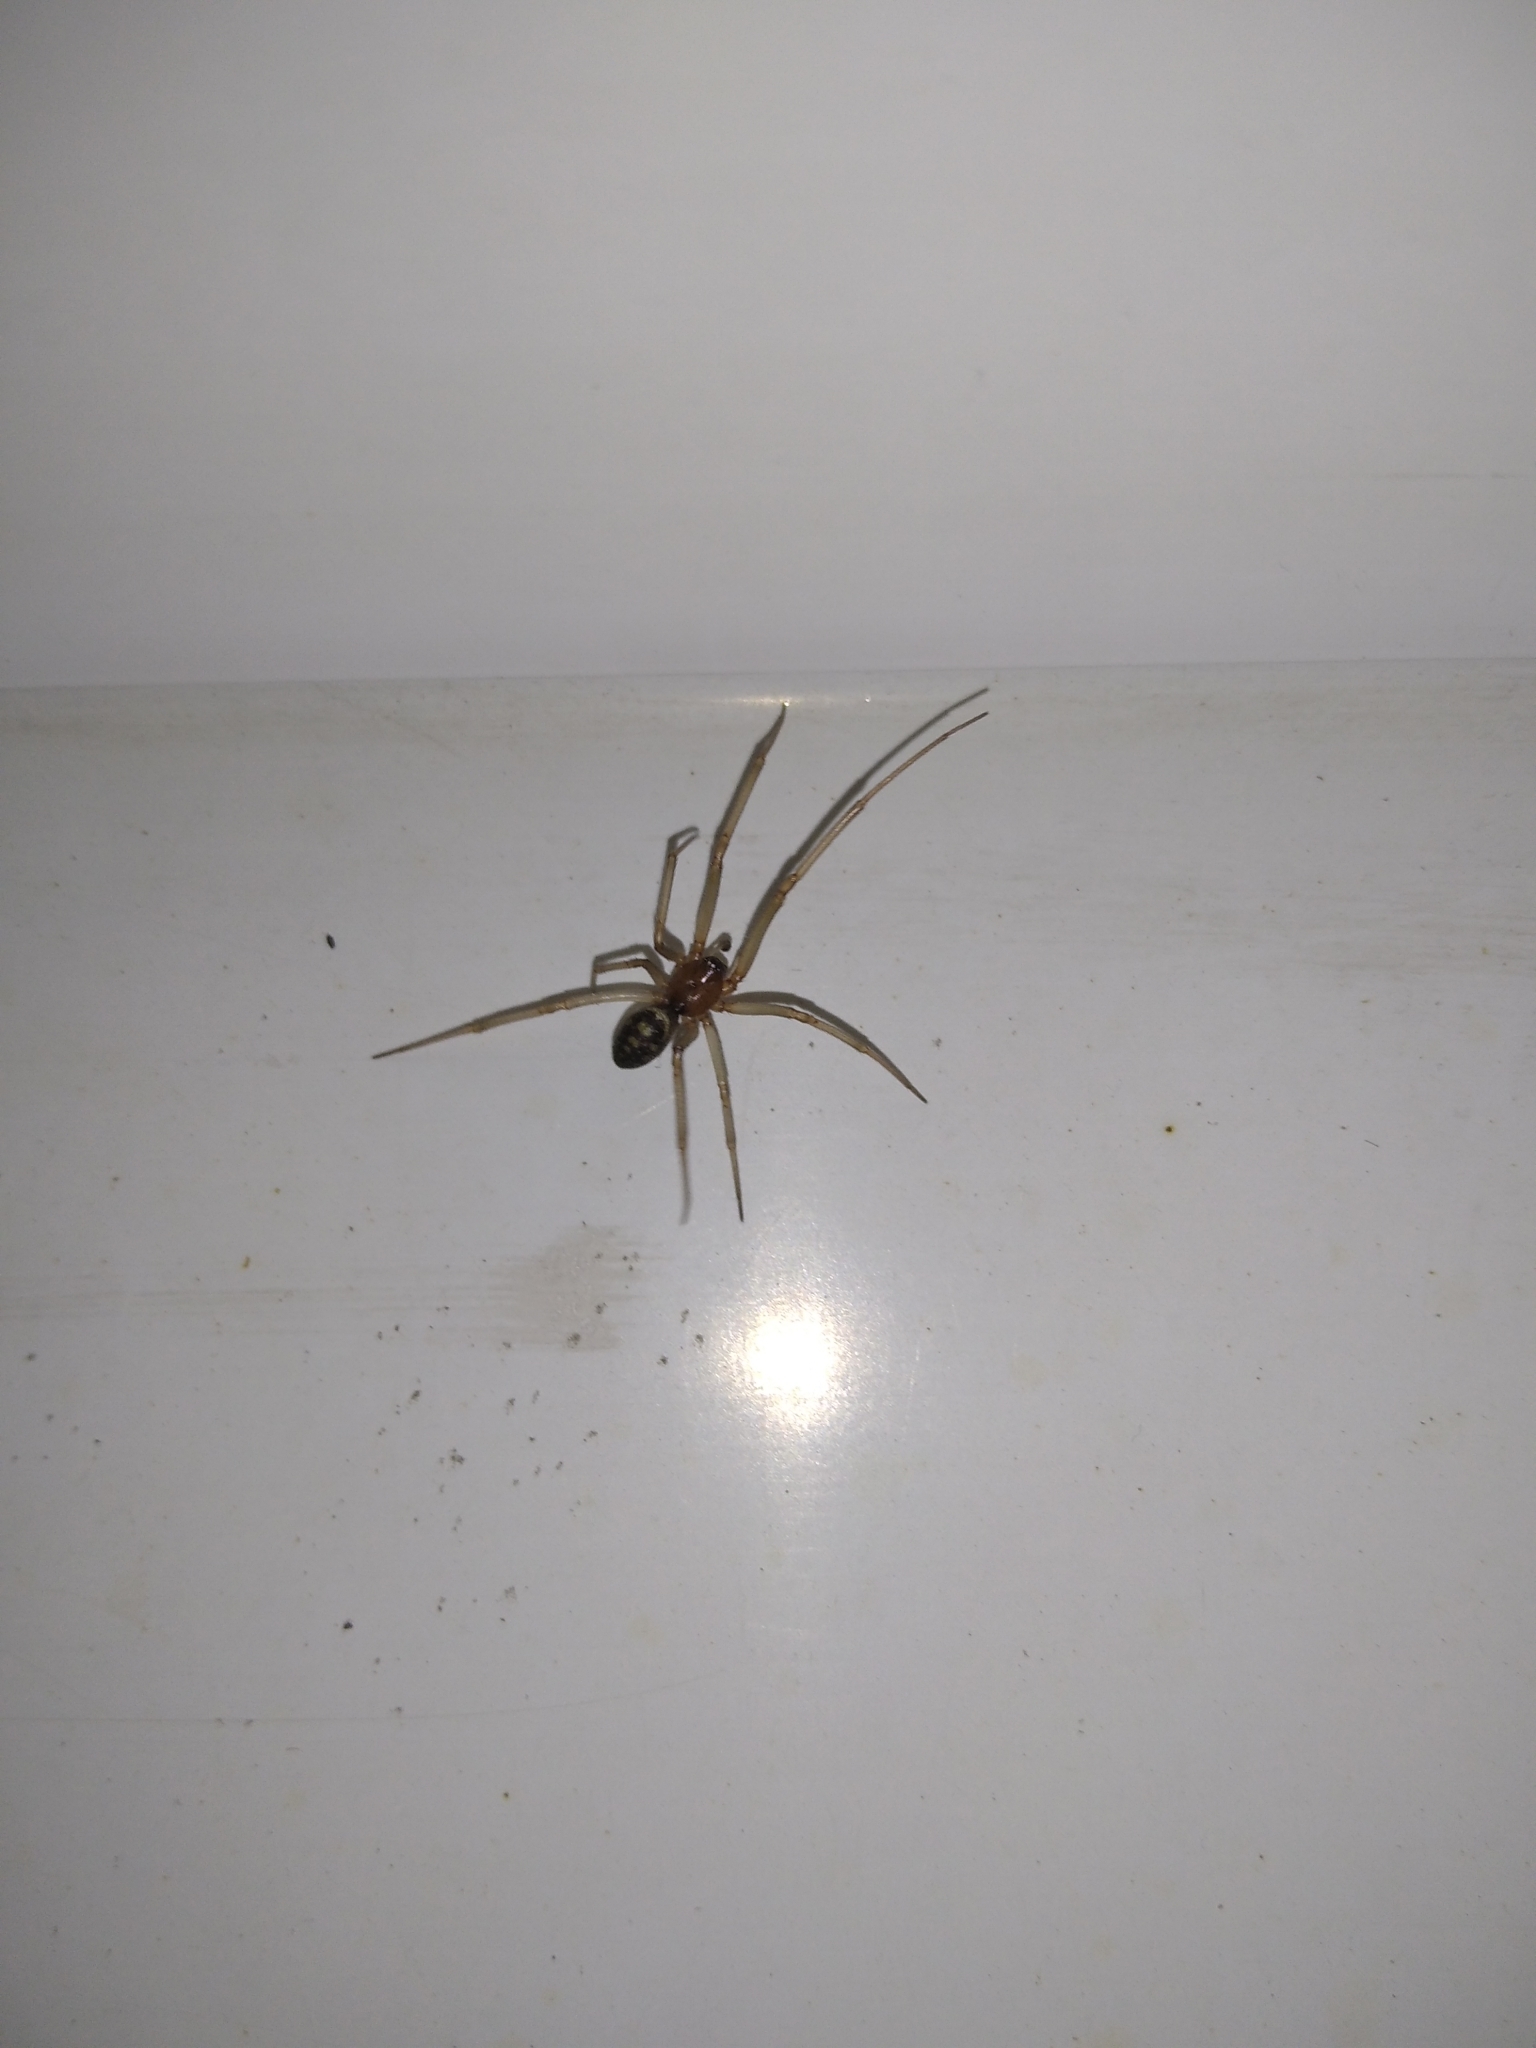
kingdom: Animalia
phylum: Arthropoda
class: Arachnida
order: Araneae
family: Theridiidae
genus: Steatoda
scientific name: Steatoda grossa
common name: False black widow
